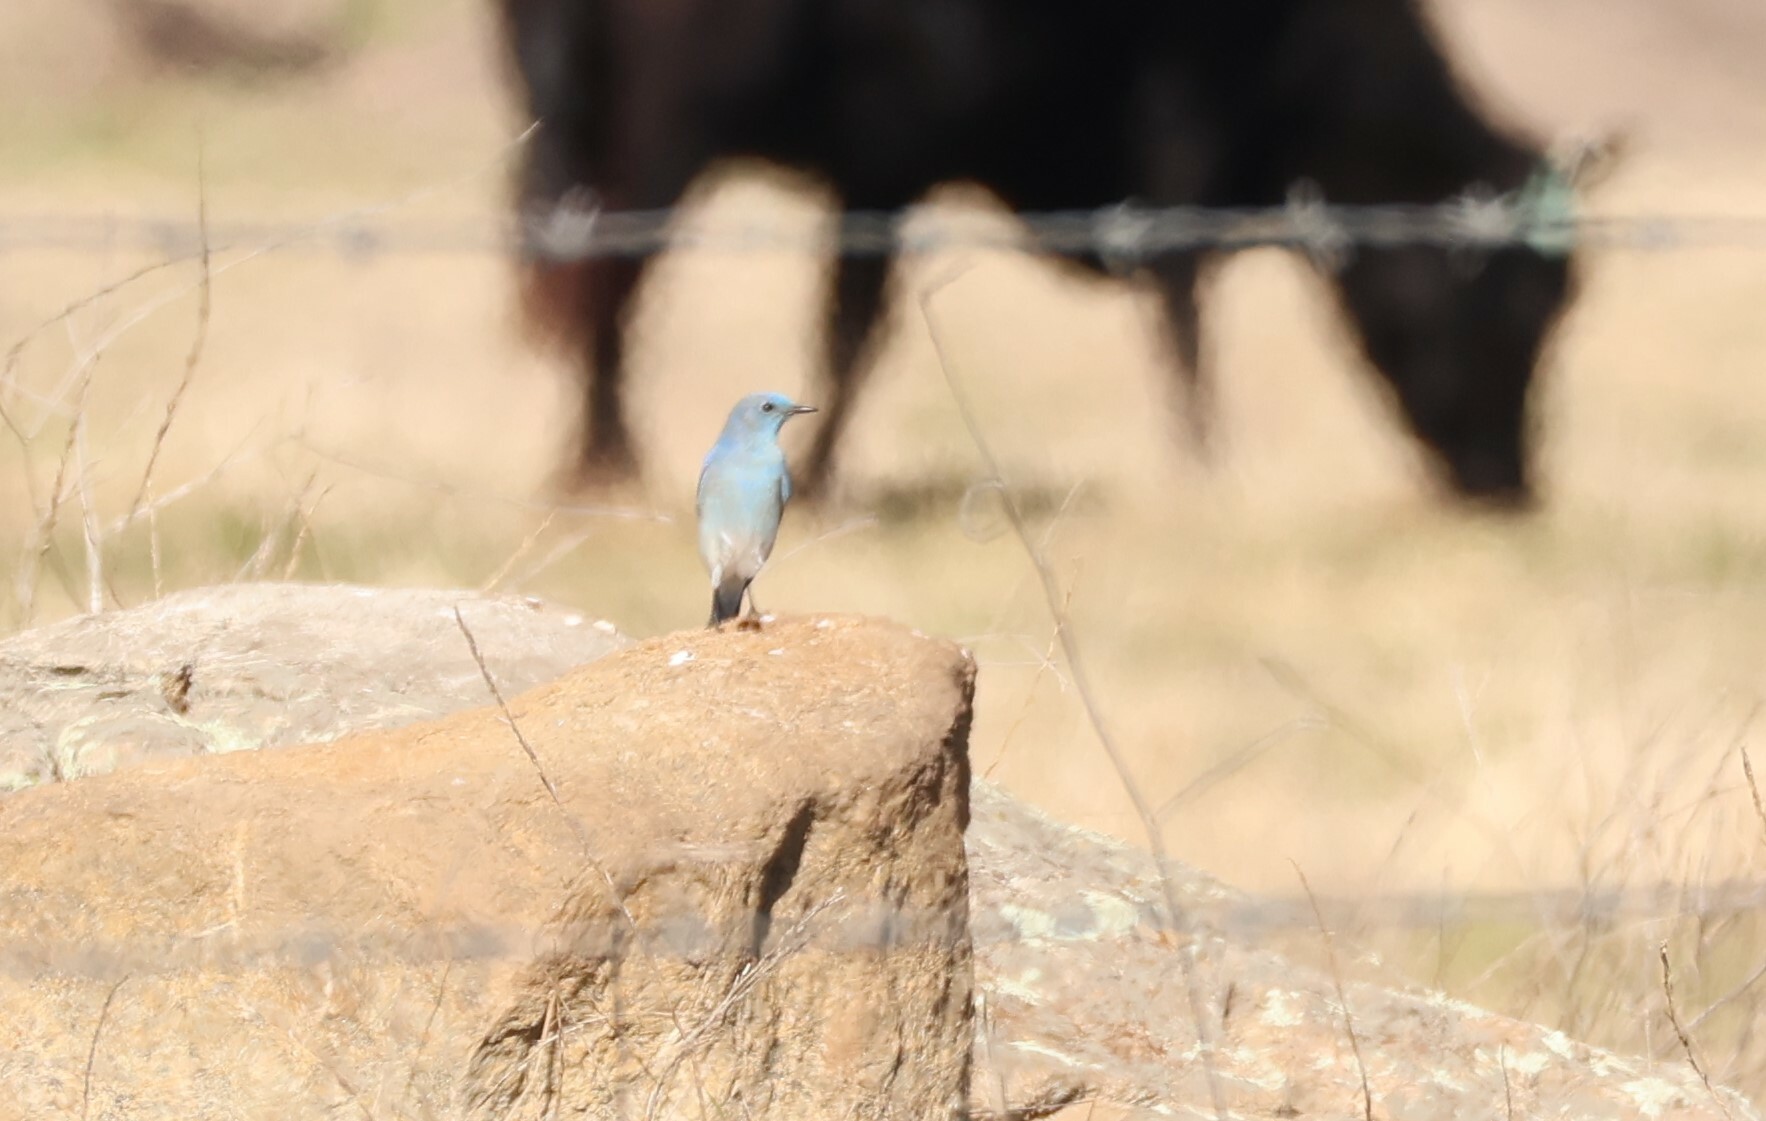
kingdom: Animalia
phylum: Chordata
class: Aves
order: Passeriformes
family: Turdidae
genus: Sialia
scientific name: Sialia currucoides
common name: Mountain bluebird
